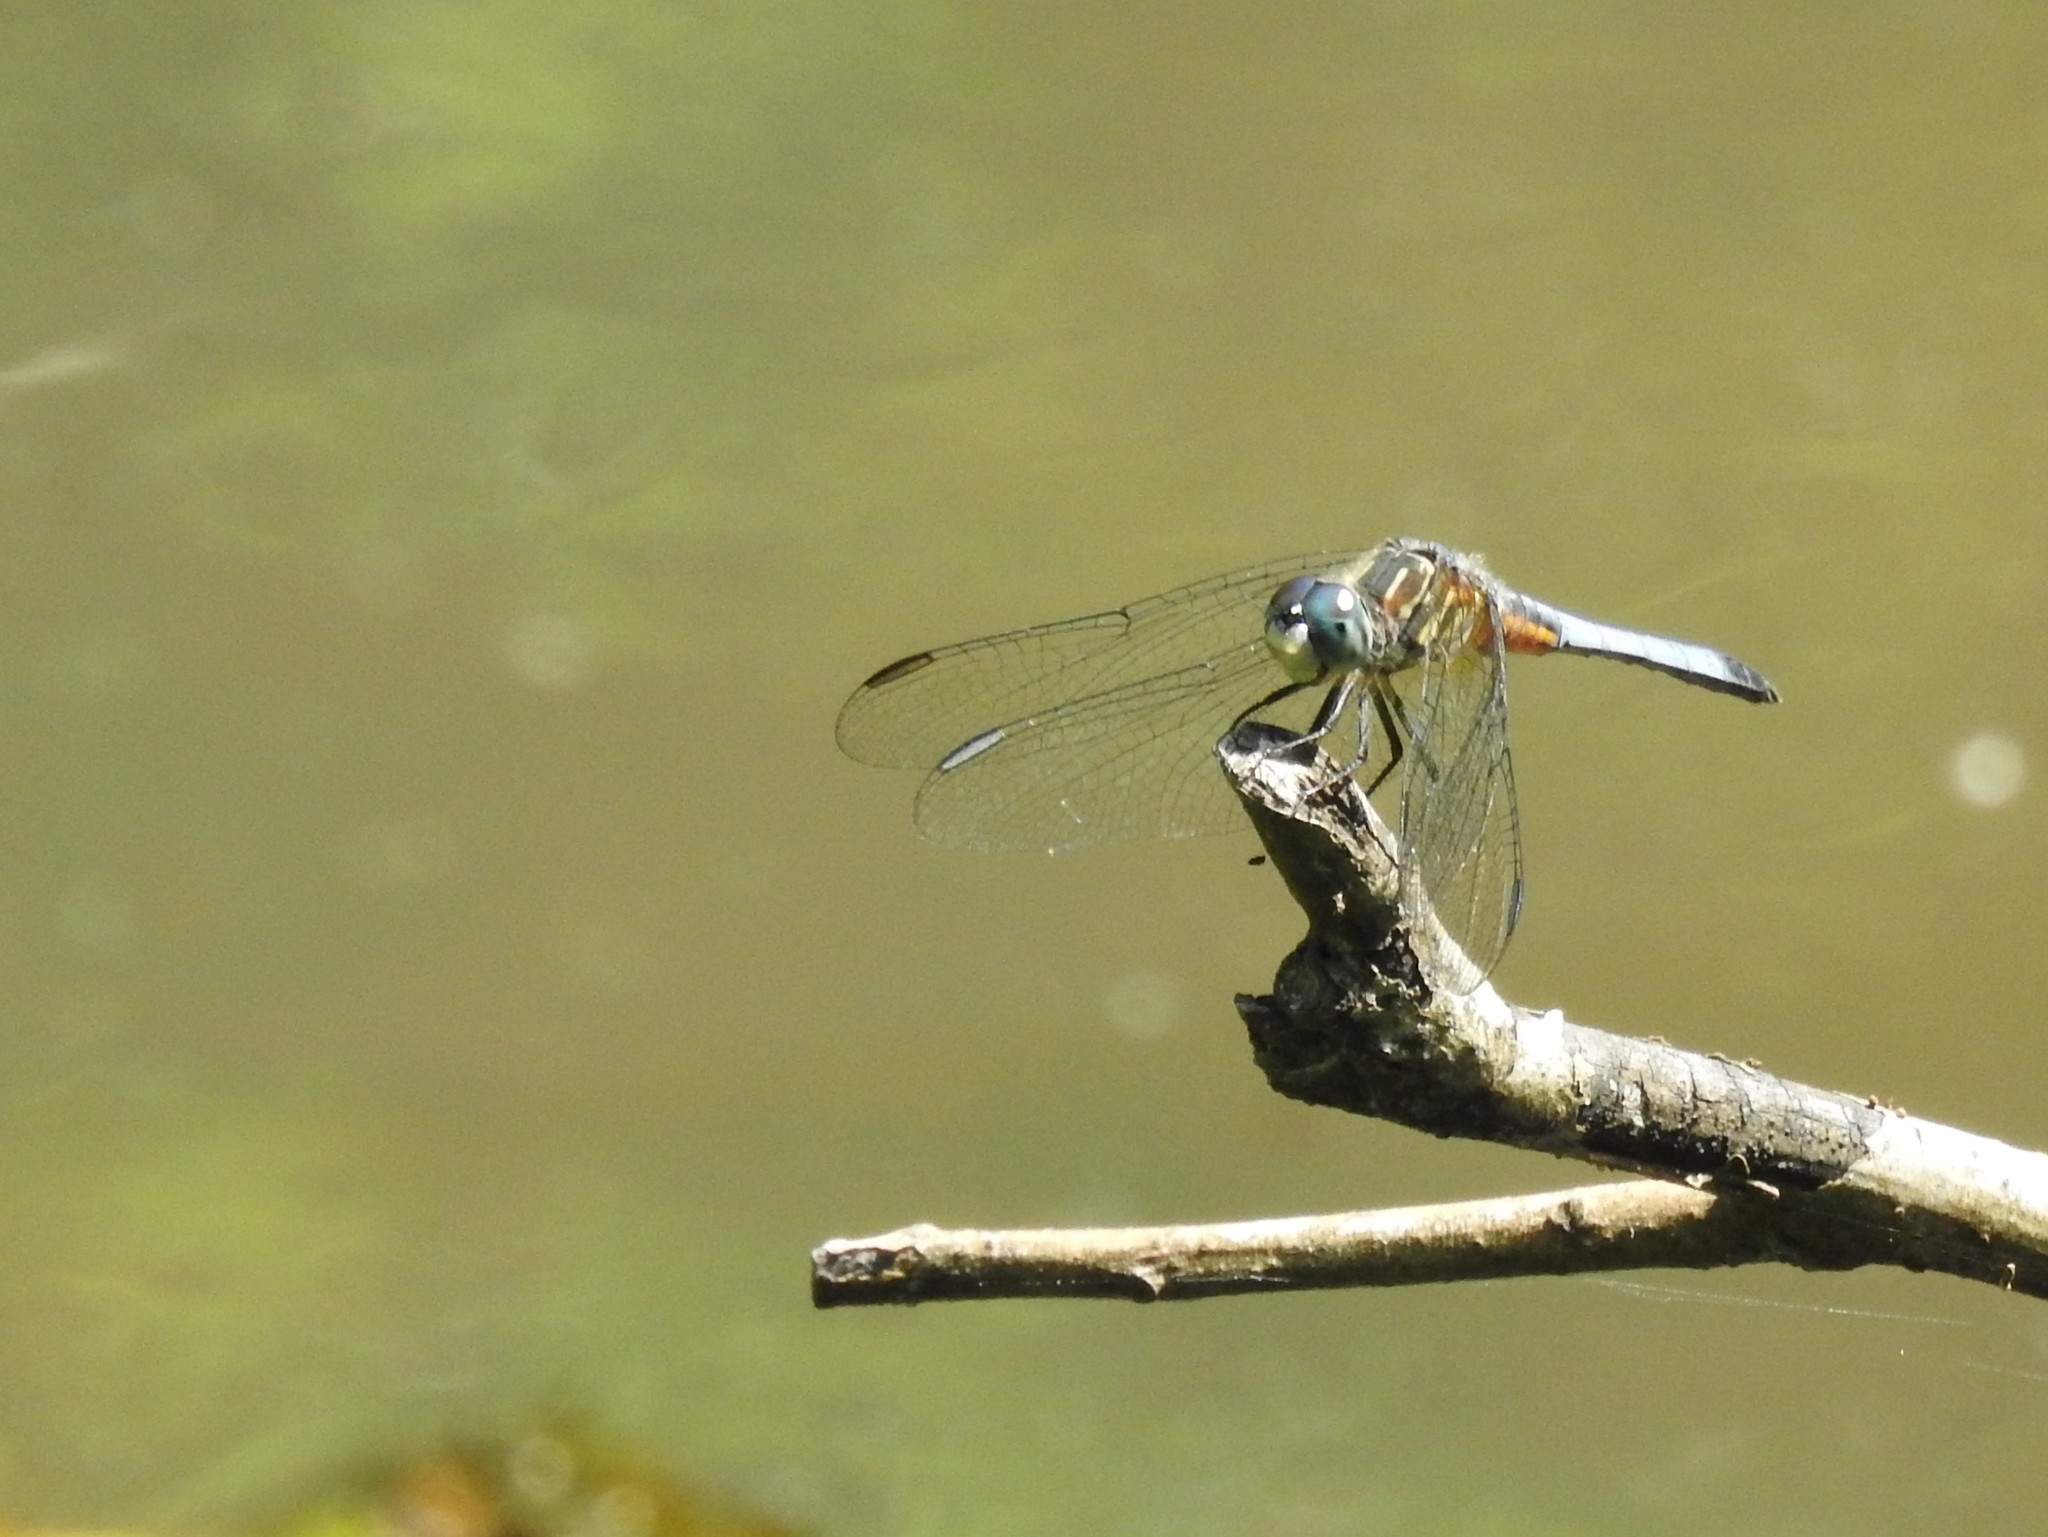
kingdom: Animalia
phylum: Arthropoda
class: Insecta
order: Odonata
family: Libellulidae
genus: Pachydiplax
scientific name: Pachydiplax longipennis
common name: Blue dasher
